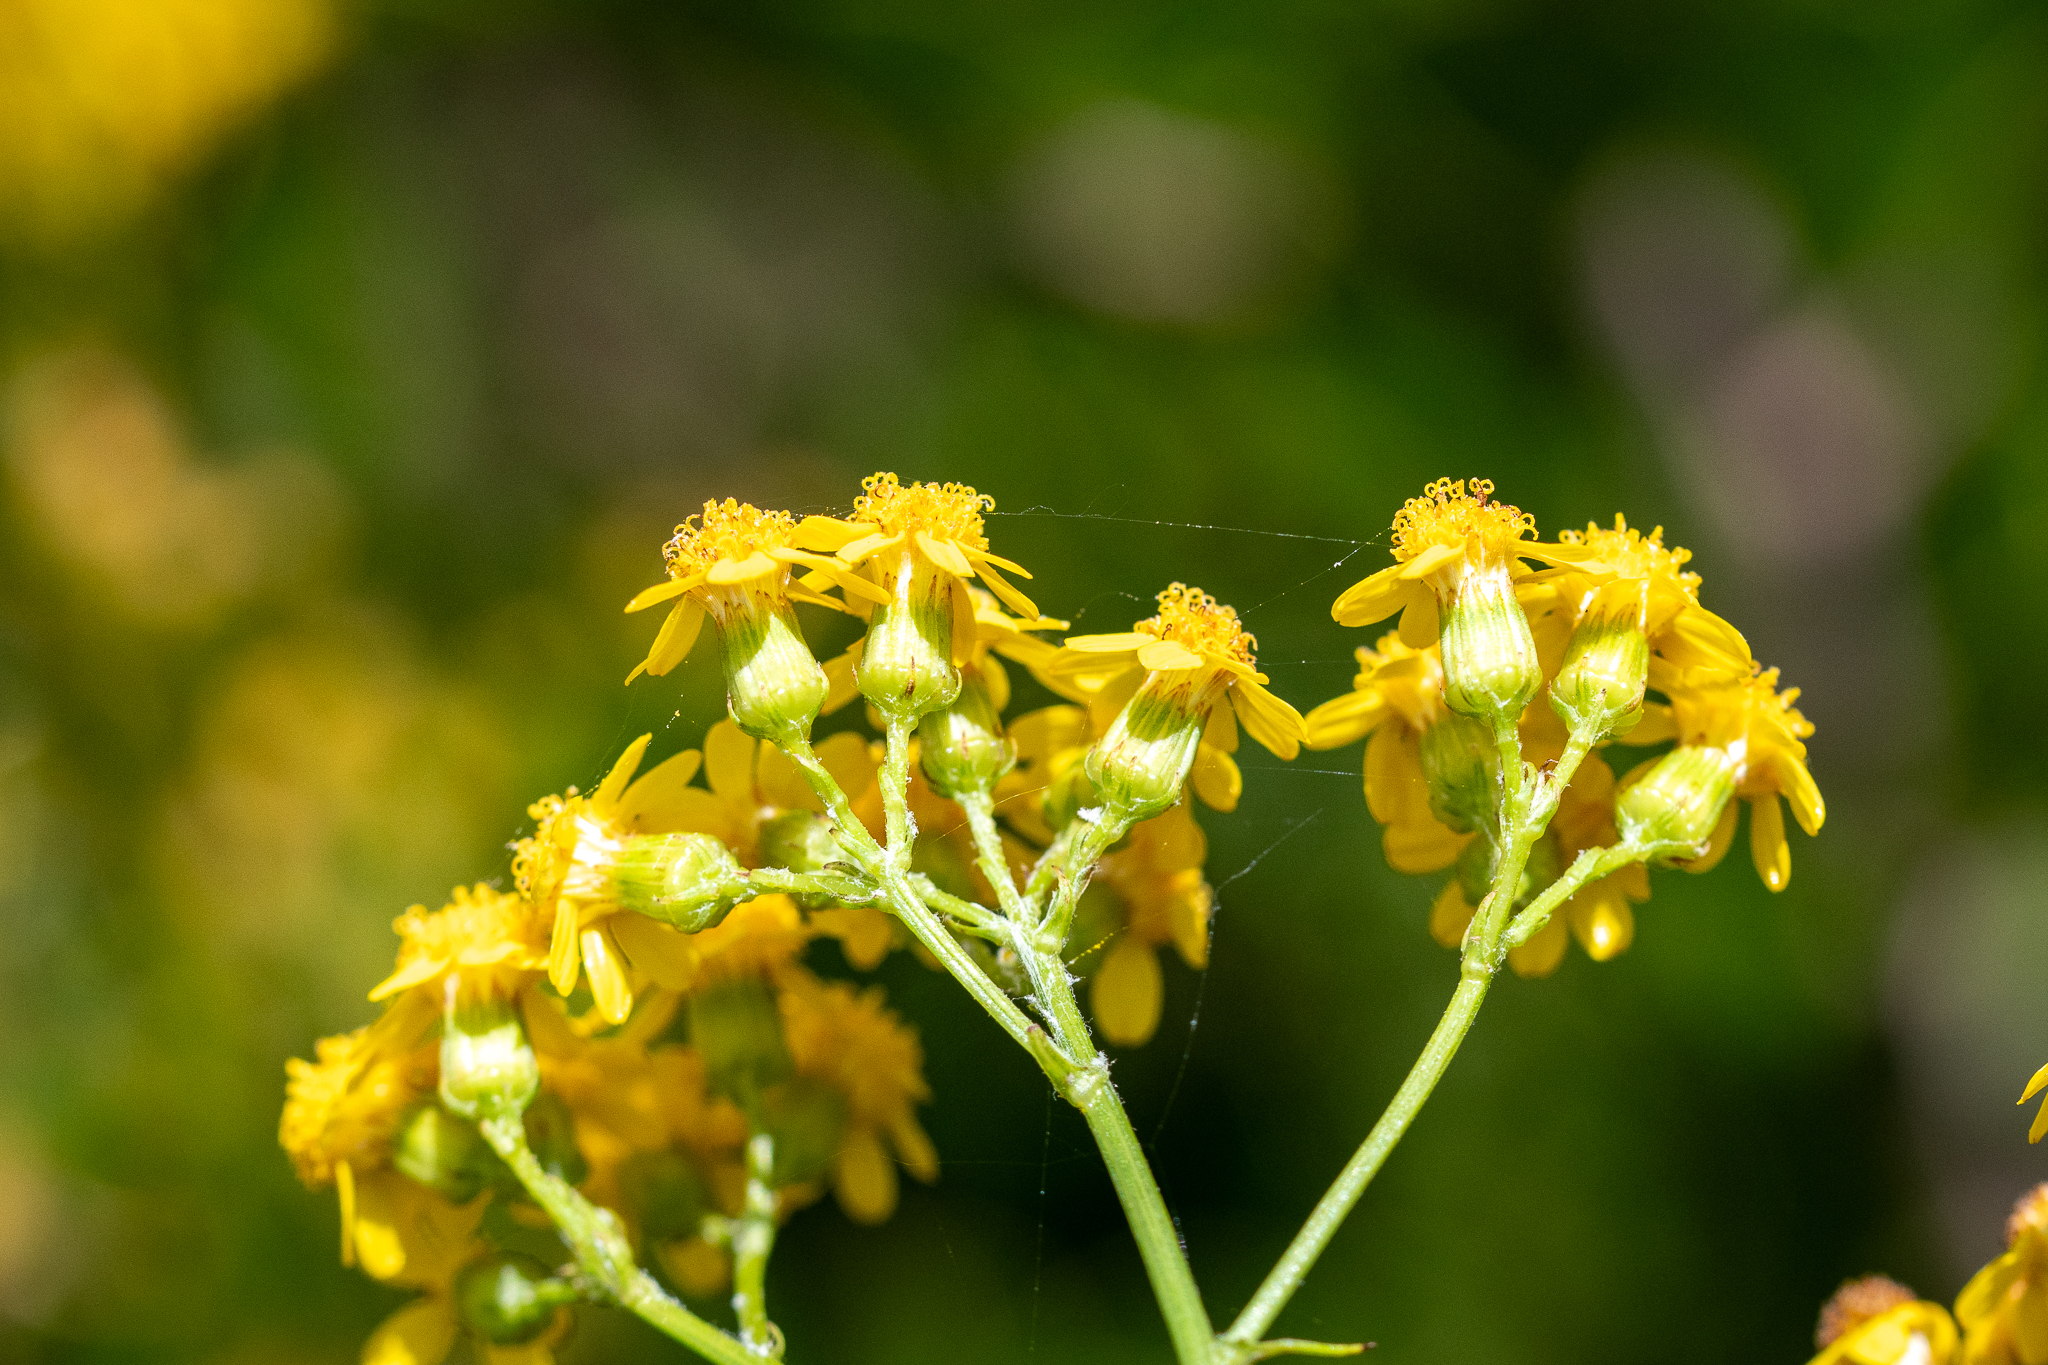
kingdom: Plantae
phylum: Tracheophyta
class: Magnoliopsida
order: Asterales
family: Asteraceae
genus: Senecio
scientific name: Senecio burchellii
